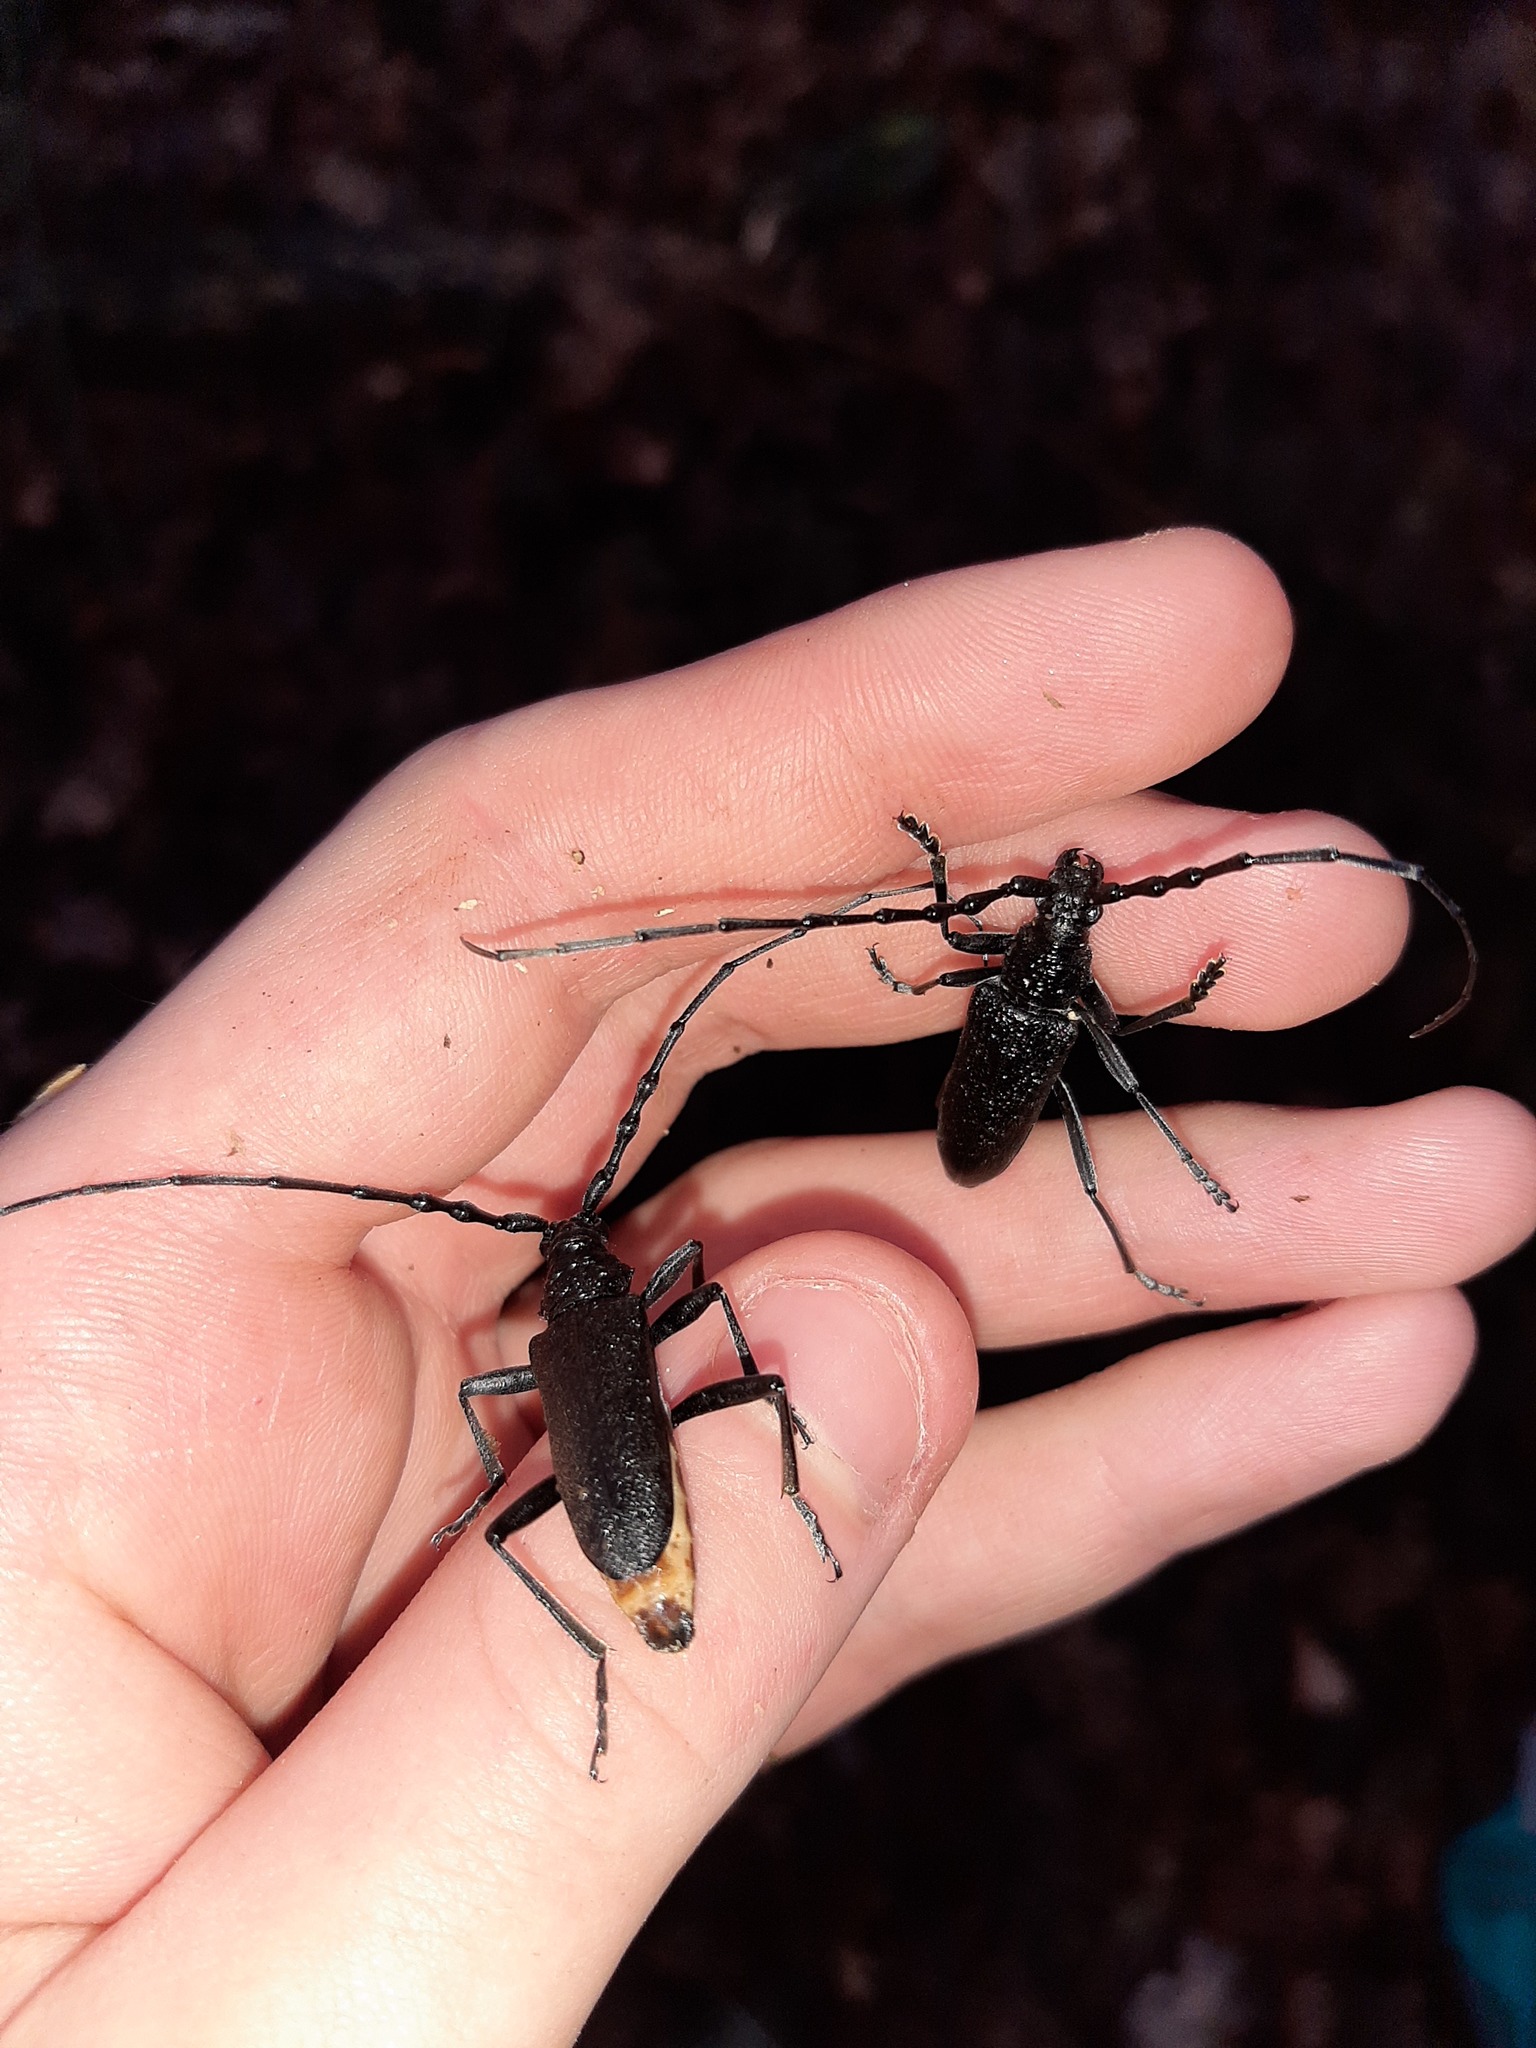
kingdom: Animalia
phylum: Arthropoda
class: Insecta
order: Coleoptera
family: Cerambycidae
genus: Cerambyx
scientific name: Cerambyx scopolii
